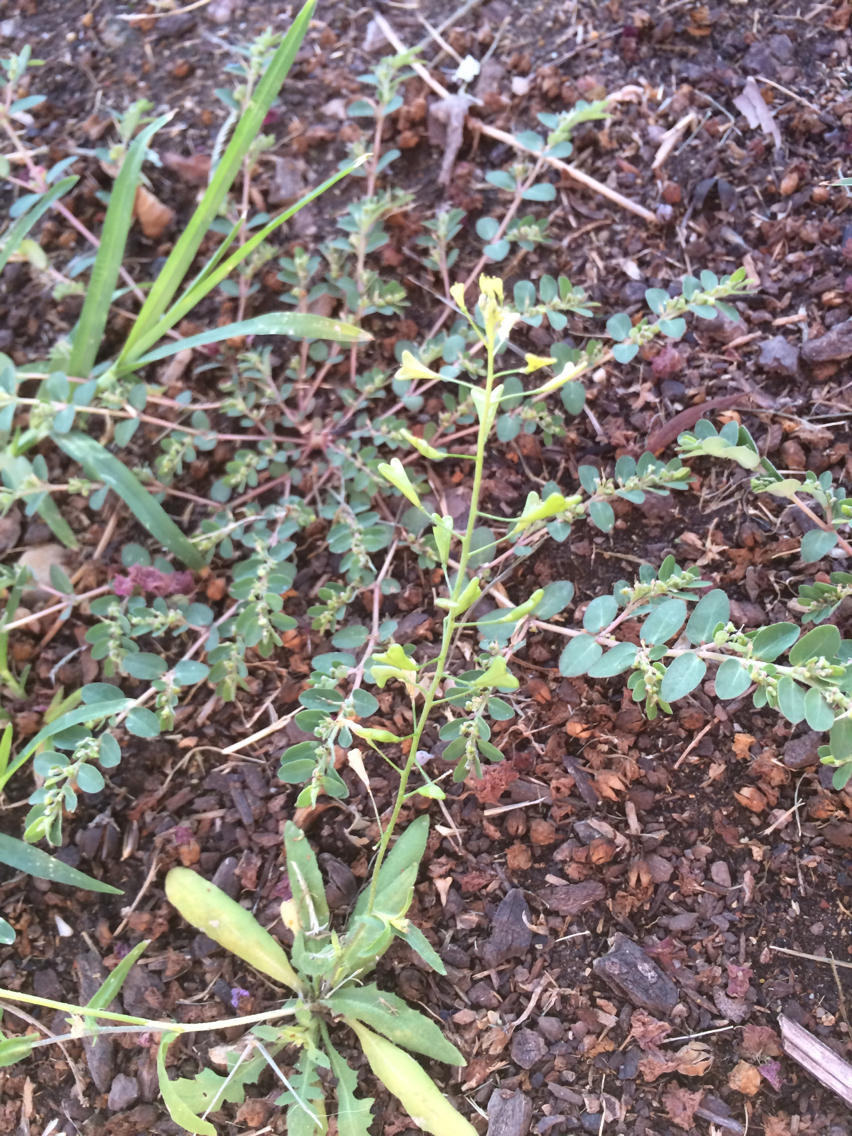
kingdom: Plantae
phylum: Tracheophyta
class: Magnoliopsida
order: Brassicales
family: Brassicaceae
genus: Capsella
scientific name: Capsella bursa-pastoris
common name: Shepherd's purse
